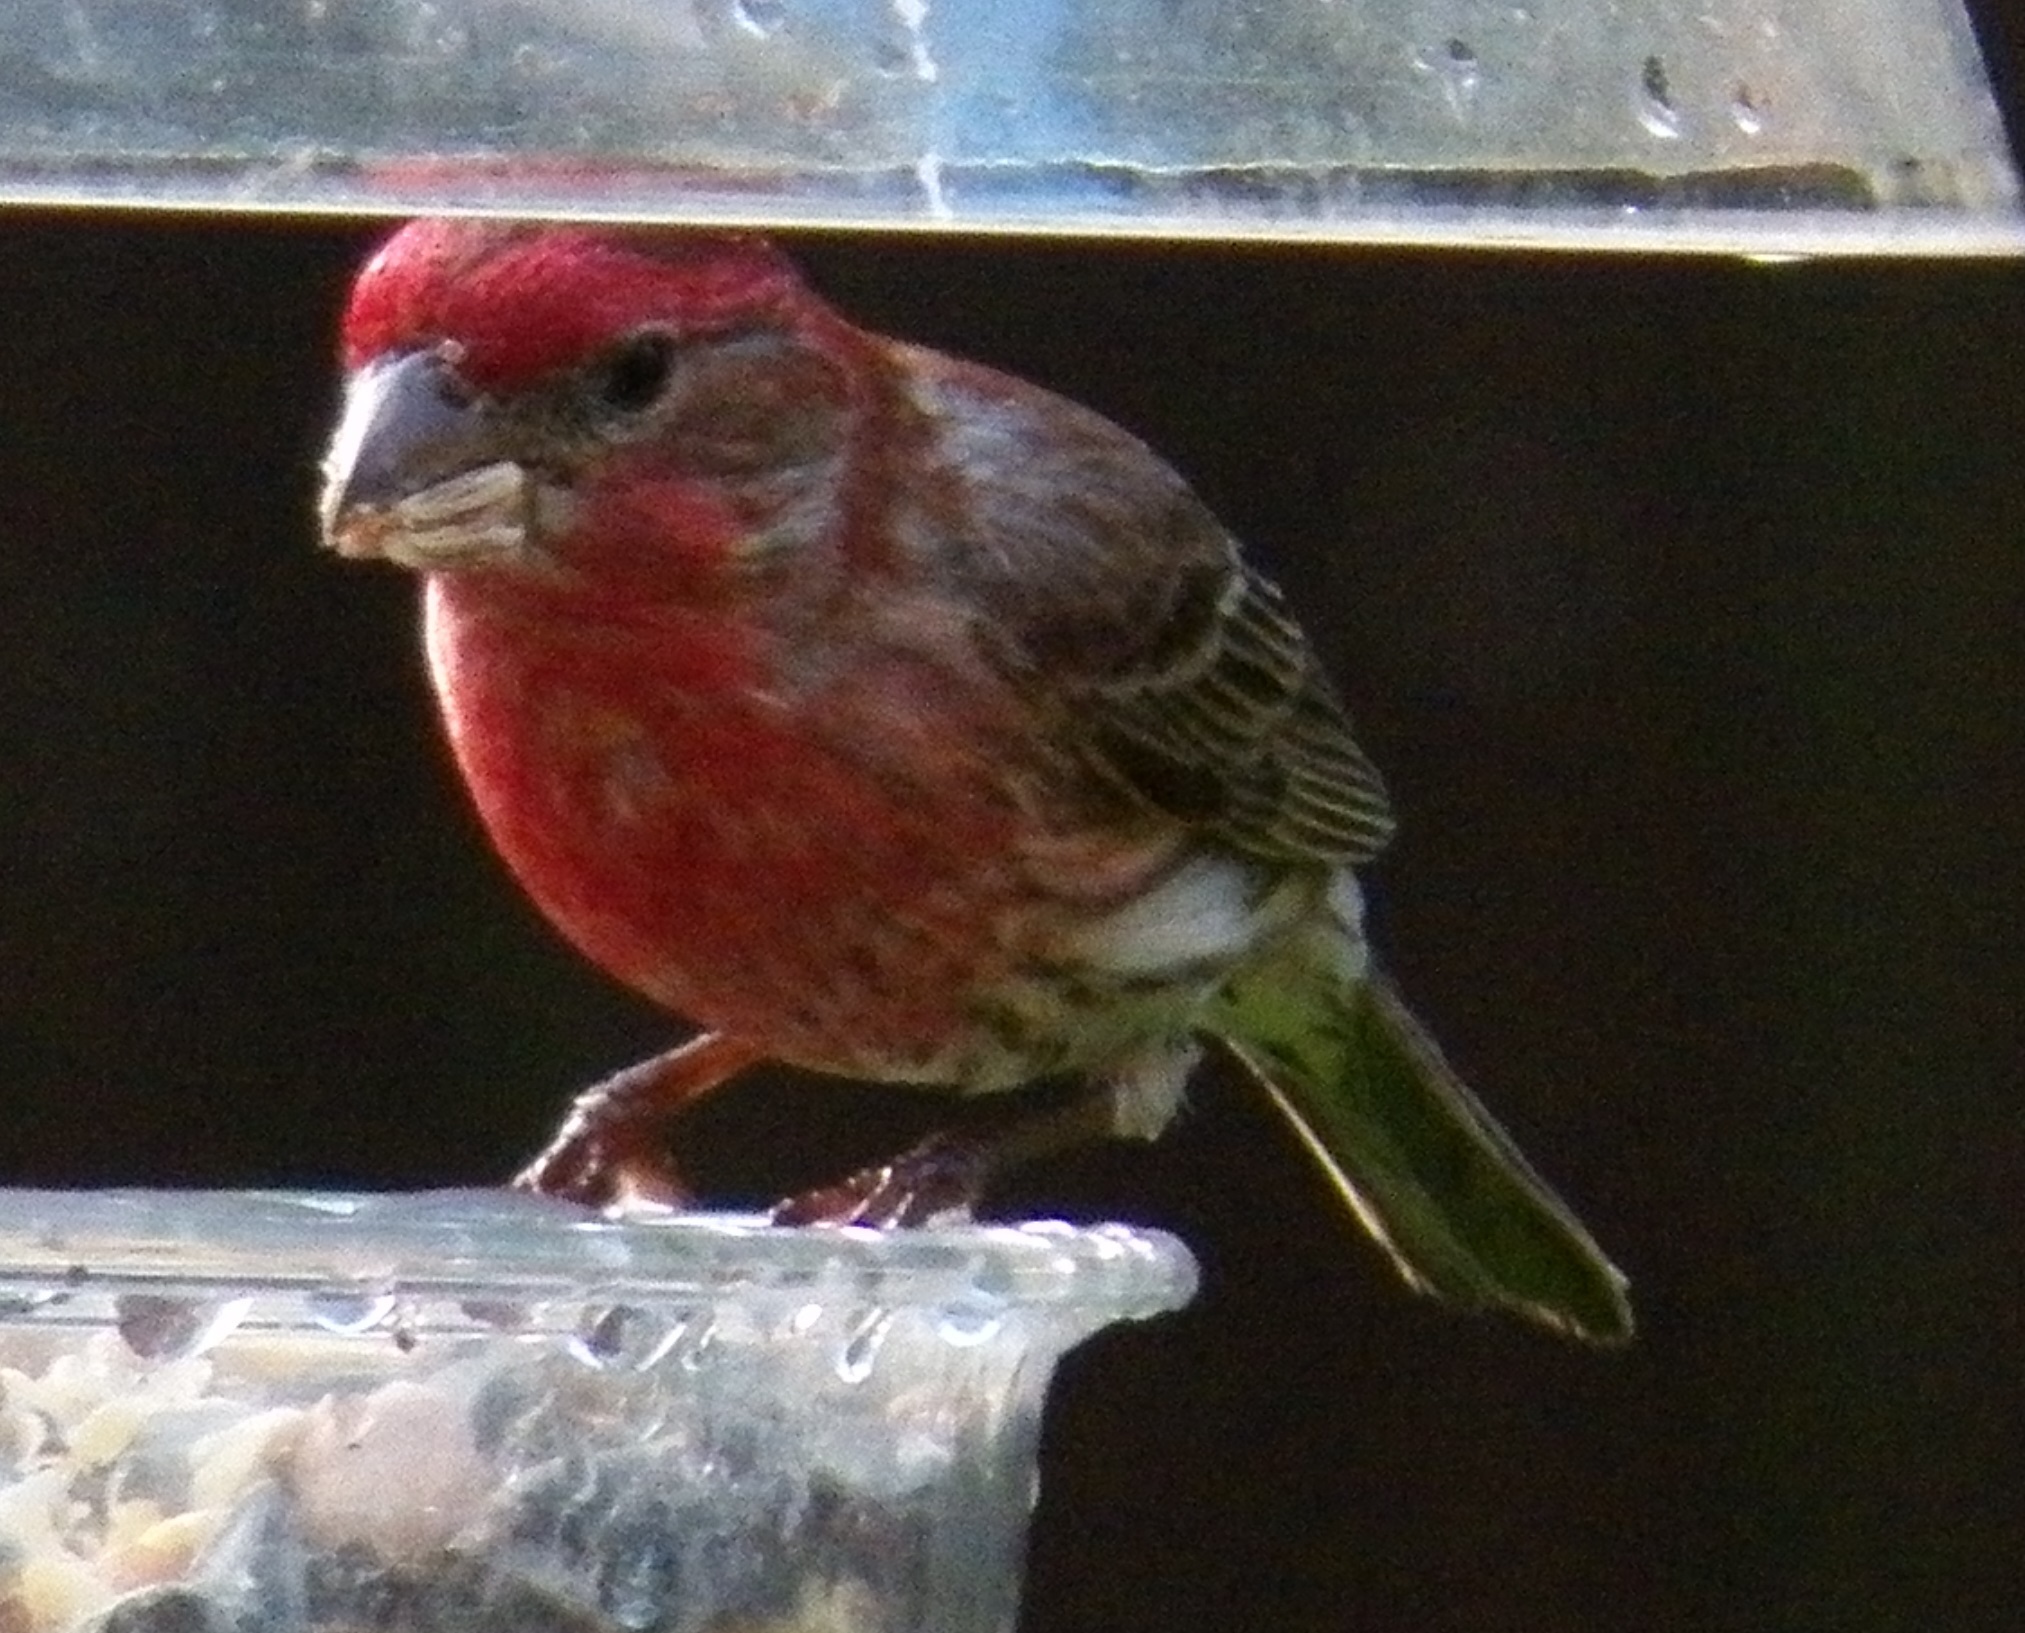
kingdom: Animalia
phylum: Chordata
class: Aves
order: Passeriformes
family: Fringillidae
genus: Haemorhous
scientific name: Haemorhous mexicanus
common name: House finch
